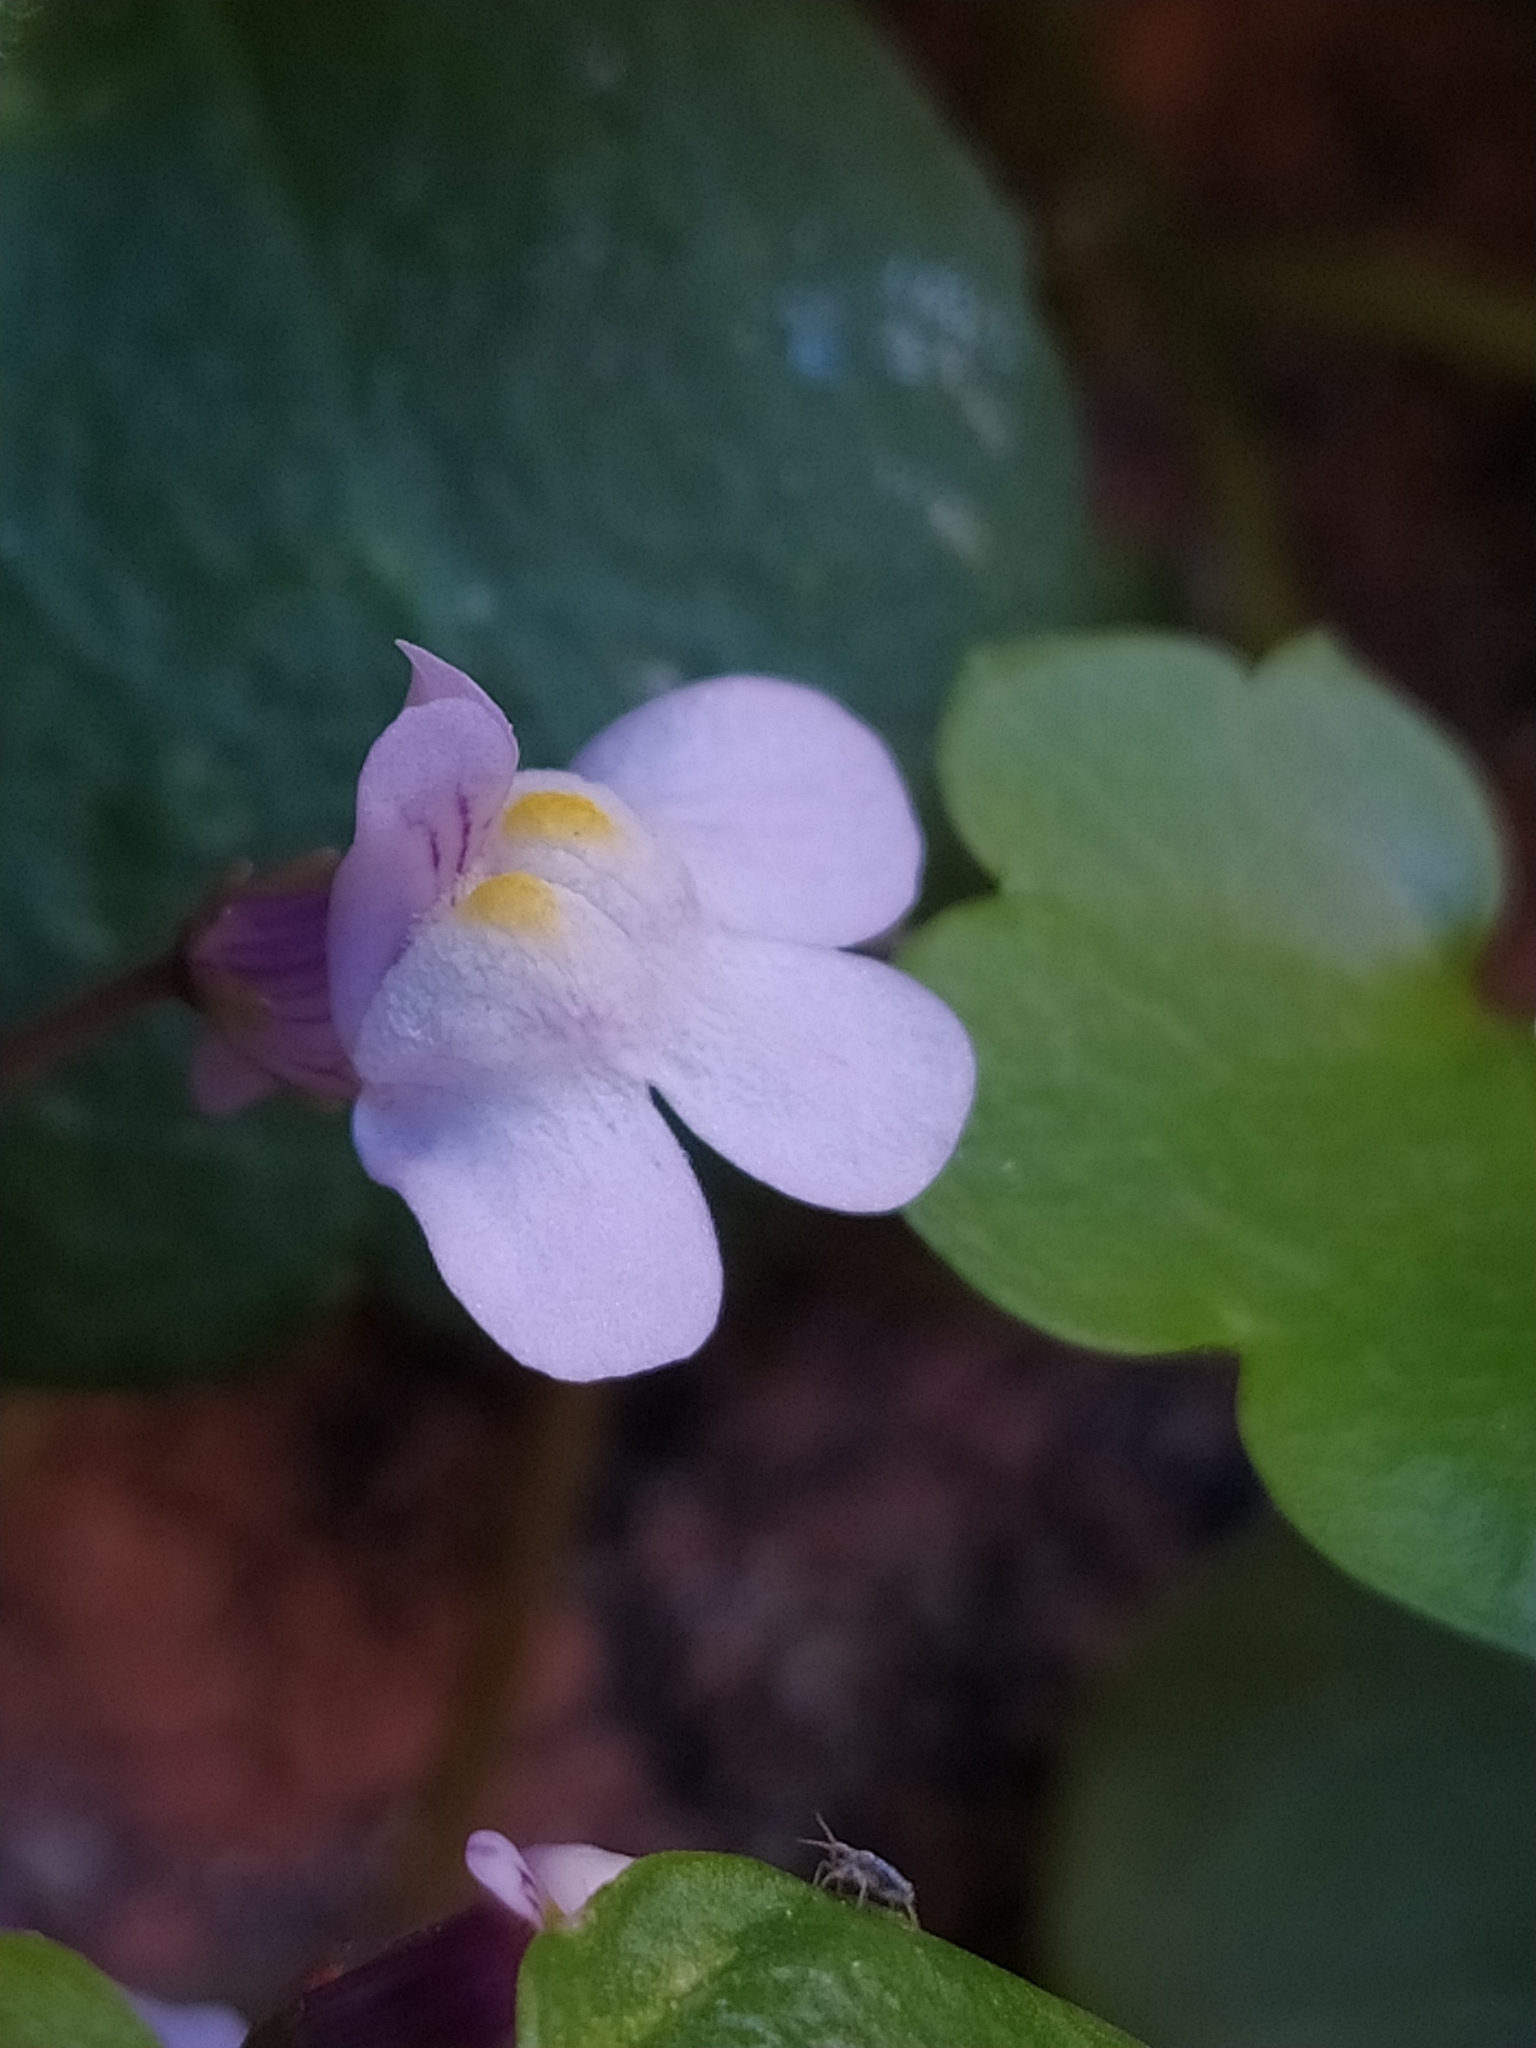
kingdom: Plantae
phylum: Tracheophyta
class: Magnoliopsida
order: Lamiales
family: Plantaginaceae
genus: Cymbalaria
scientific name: Cymbalaria muralis
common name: Ivy-leaved toadflax
